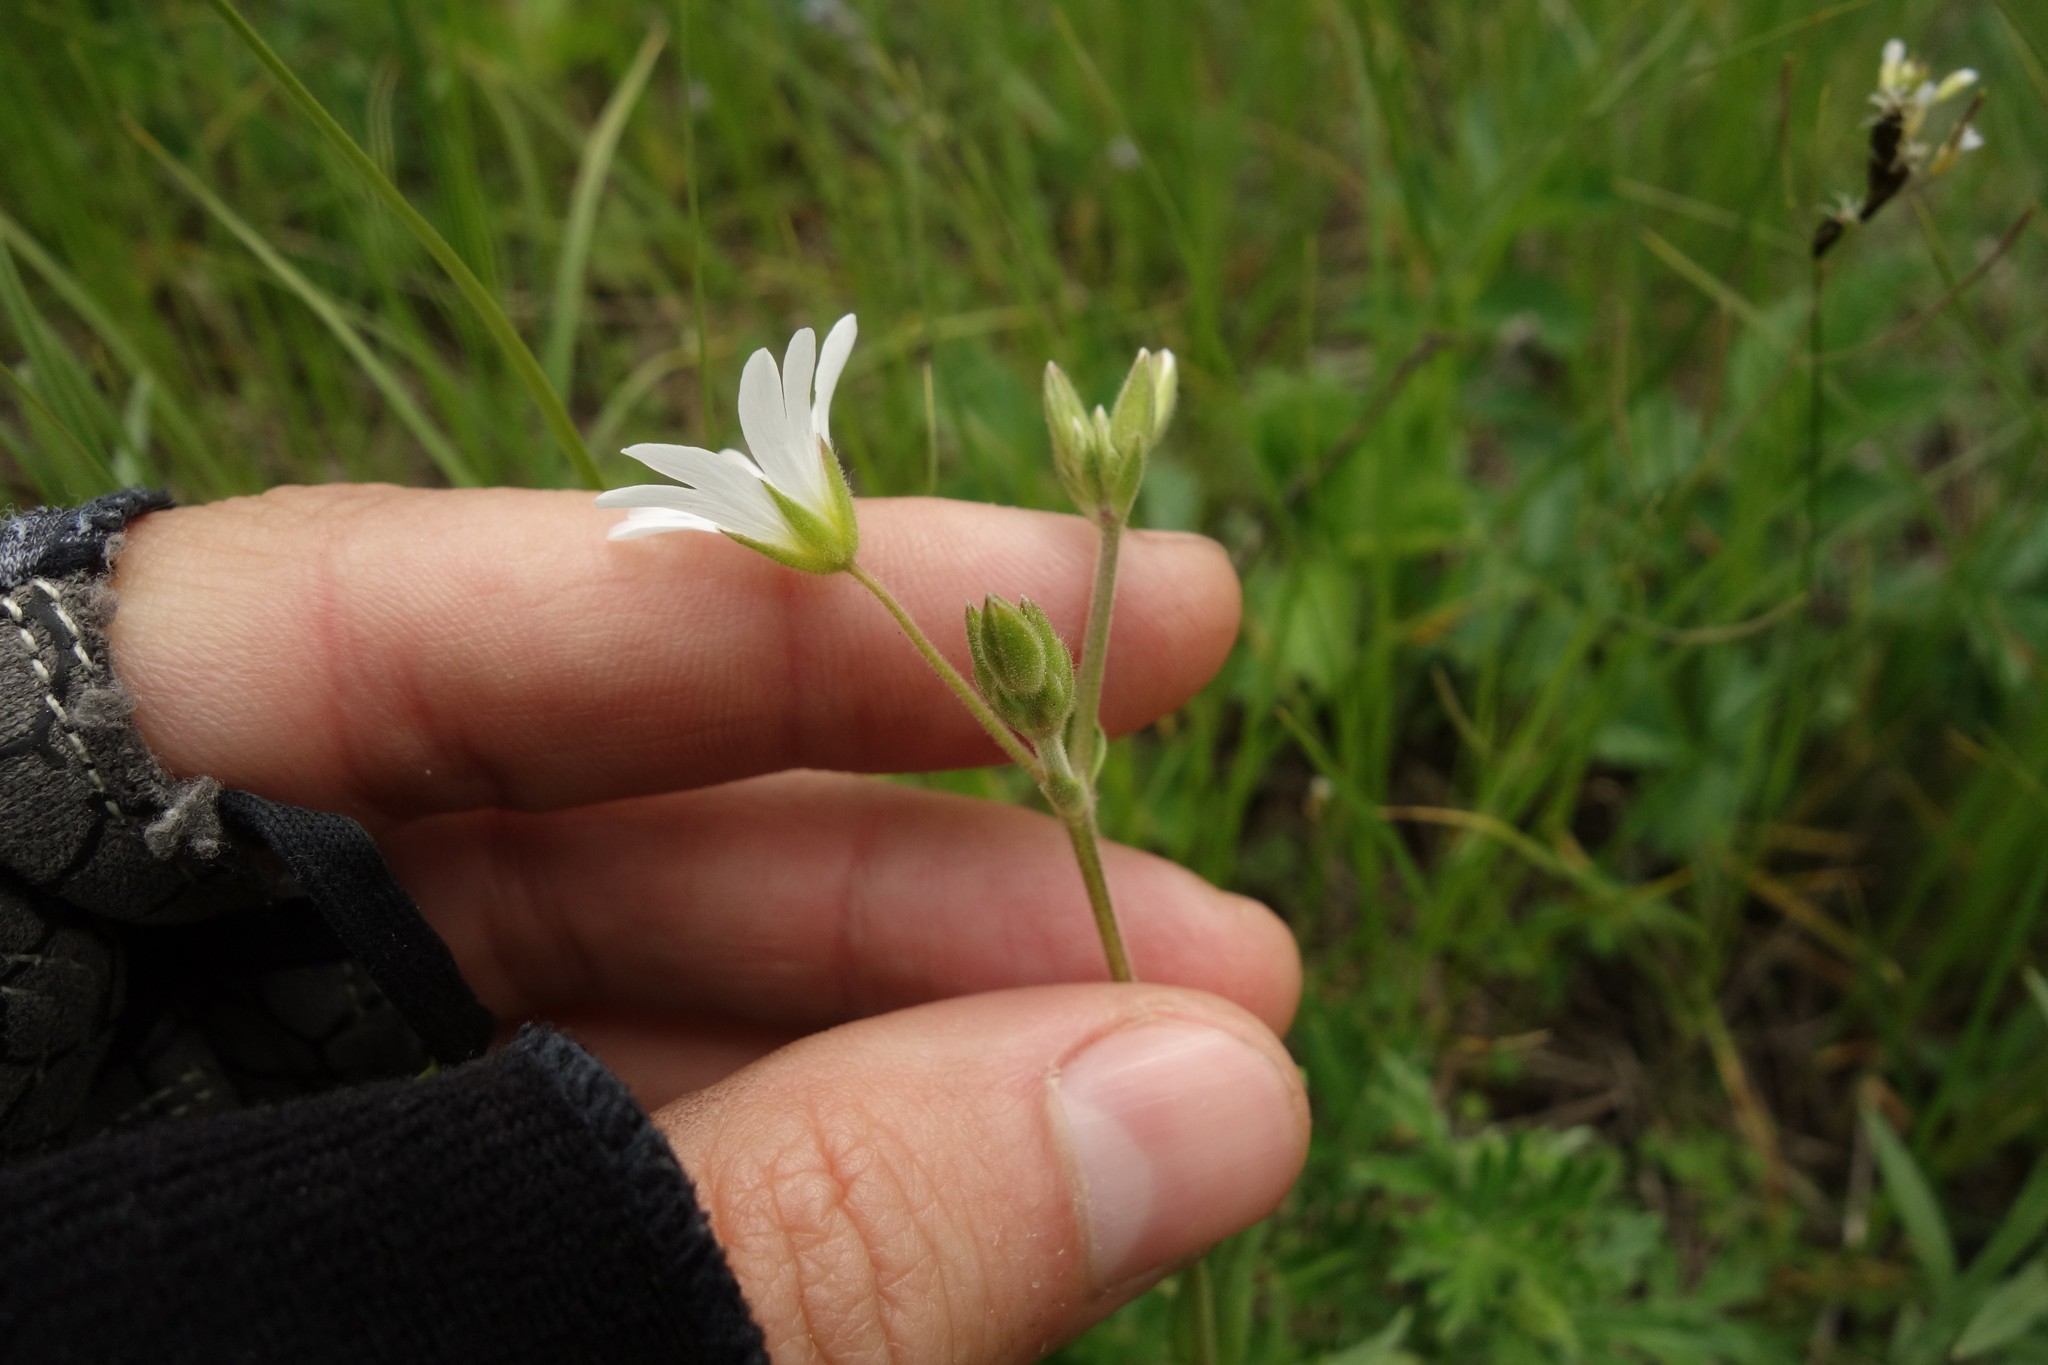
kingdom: Plantae
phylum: Tracheophyta
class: Magnoliopsida
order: Caryophyllales
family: Caryophyllaceae
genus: Cerastium
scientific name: Cerastium arvense
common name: Field mouse-ear
